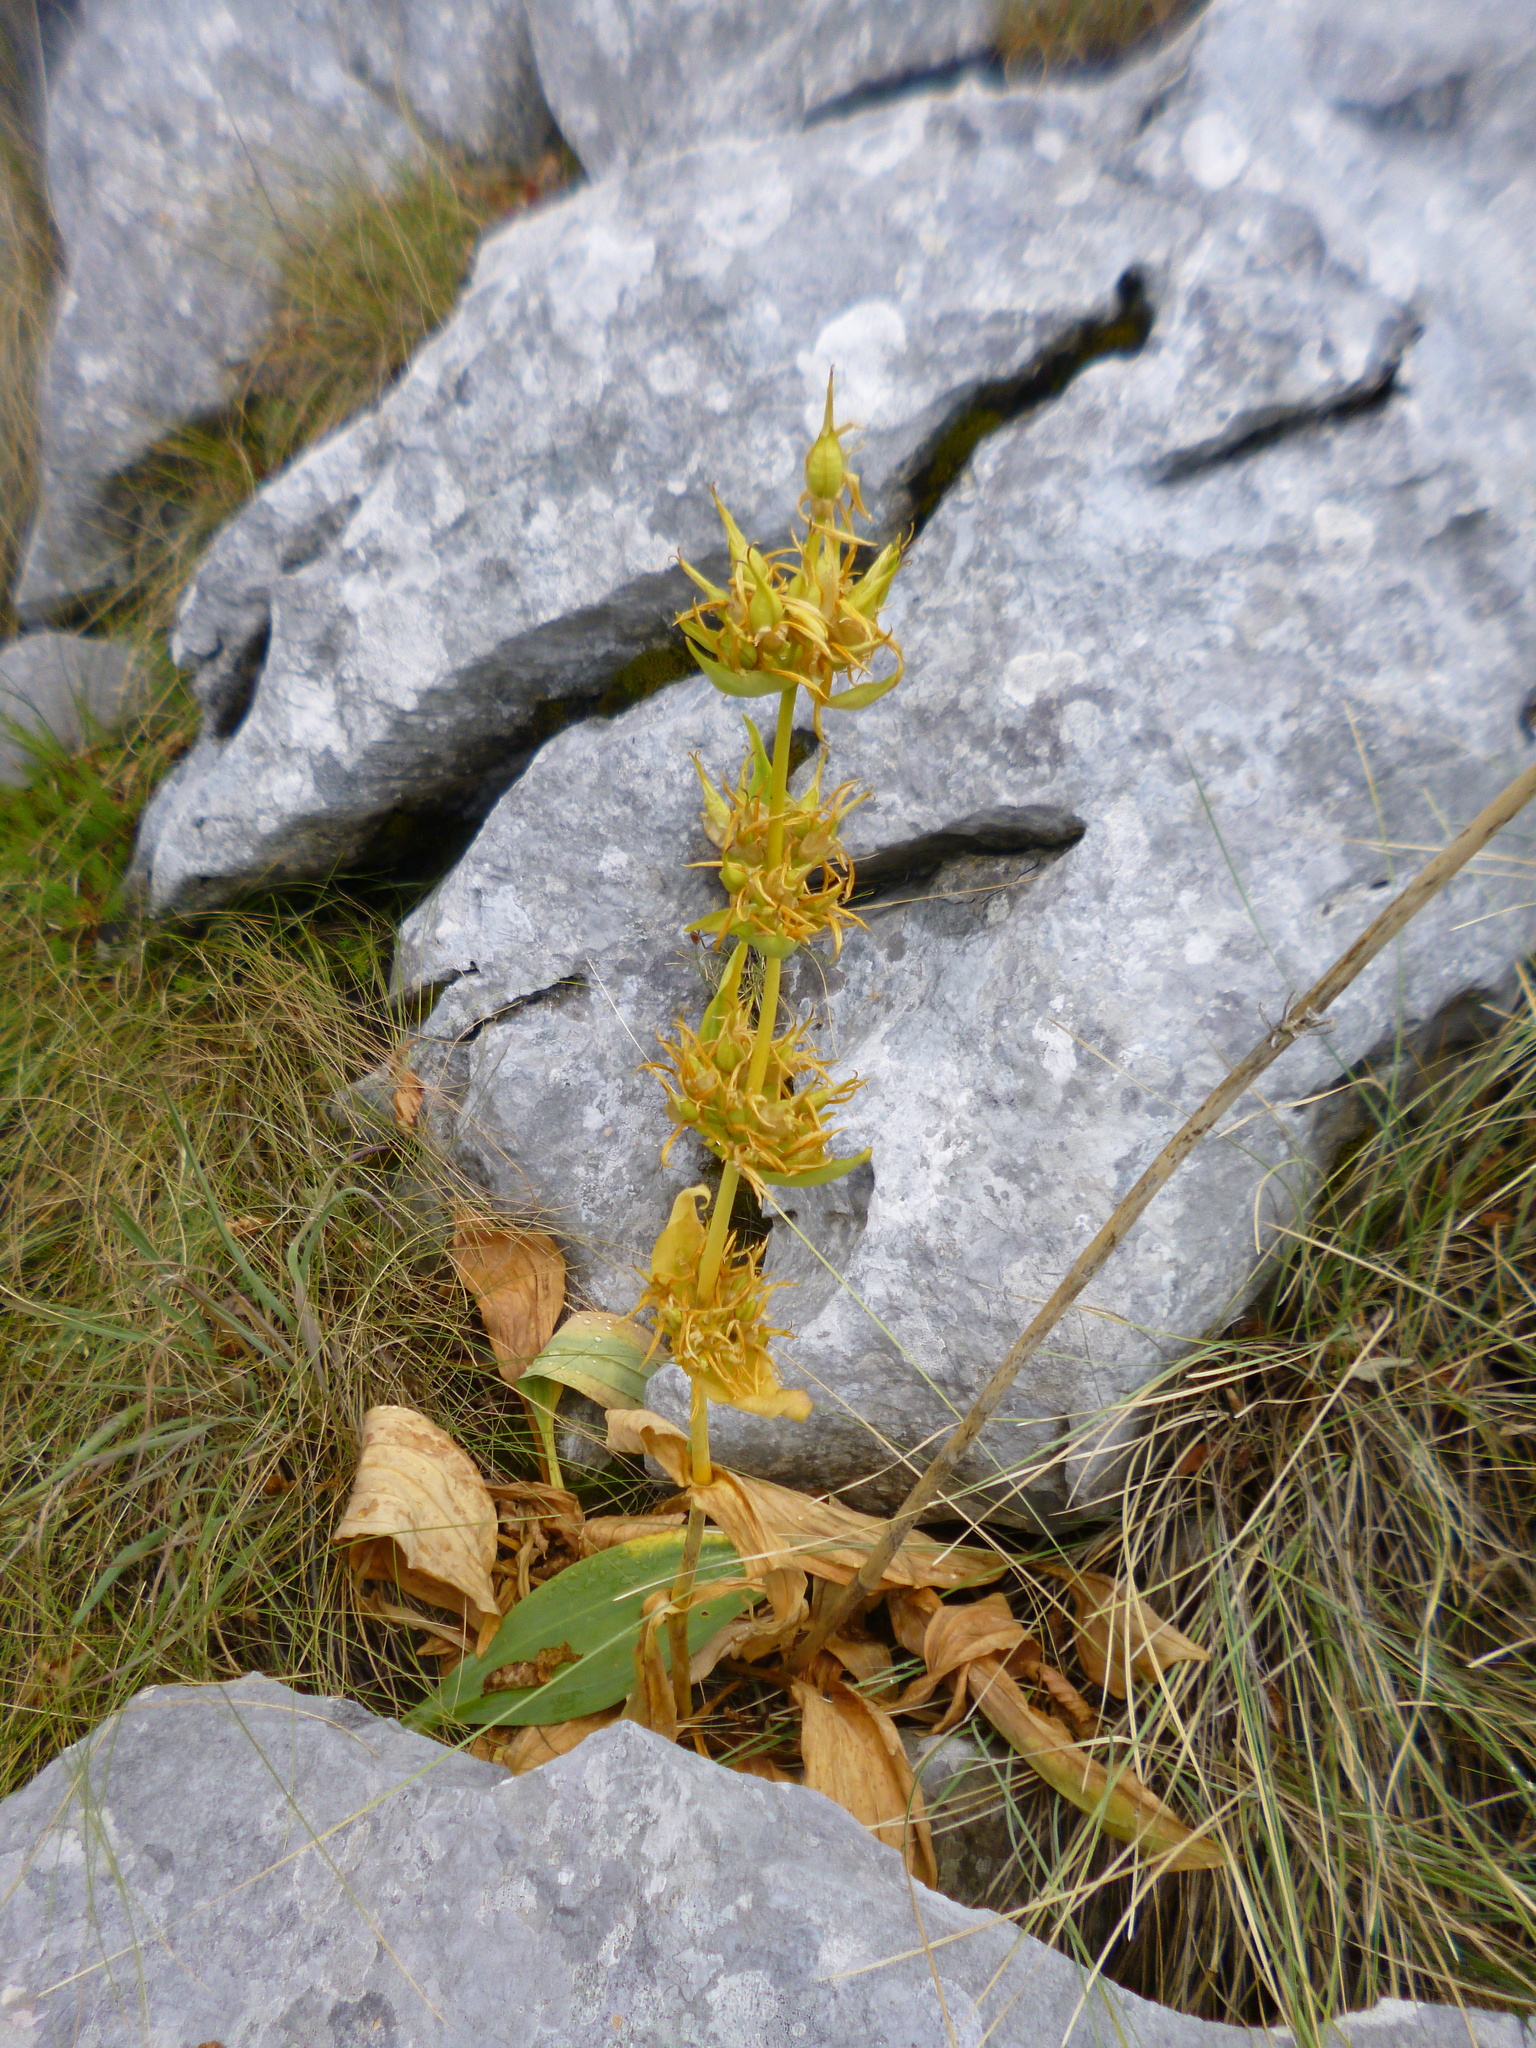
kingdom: Plantae
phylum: Tracheophyta
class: Magnoliopsida
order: Gentianales
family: Gentianaceae
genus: Gentiana
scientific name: Gentiana lutea
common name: Great yellow gentian
